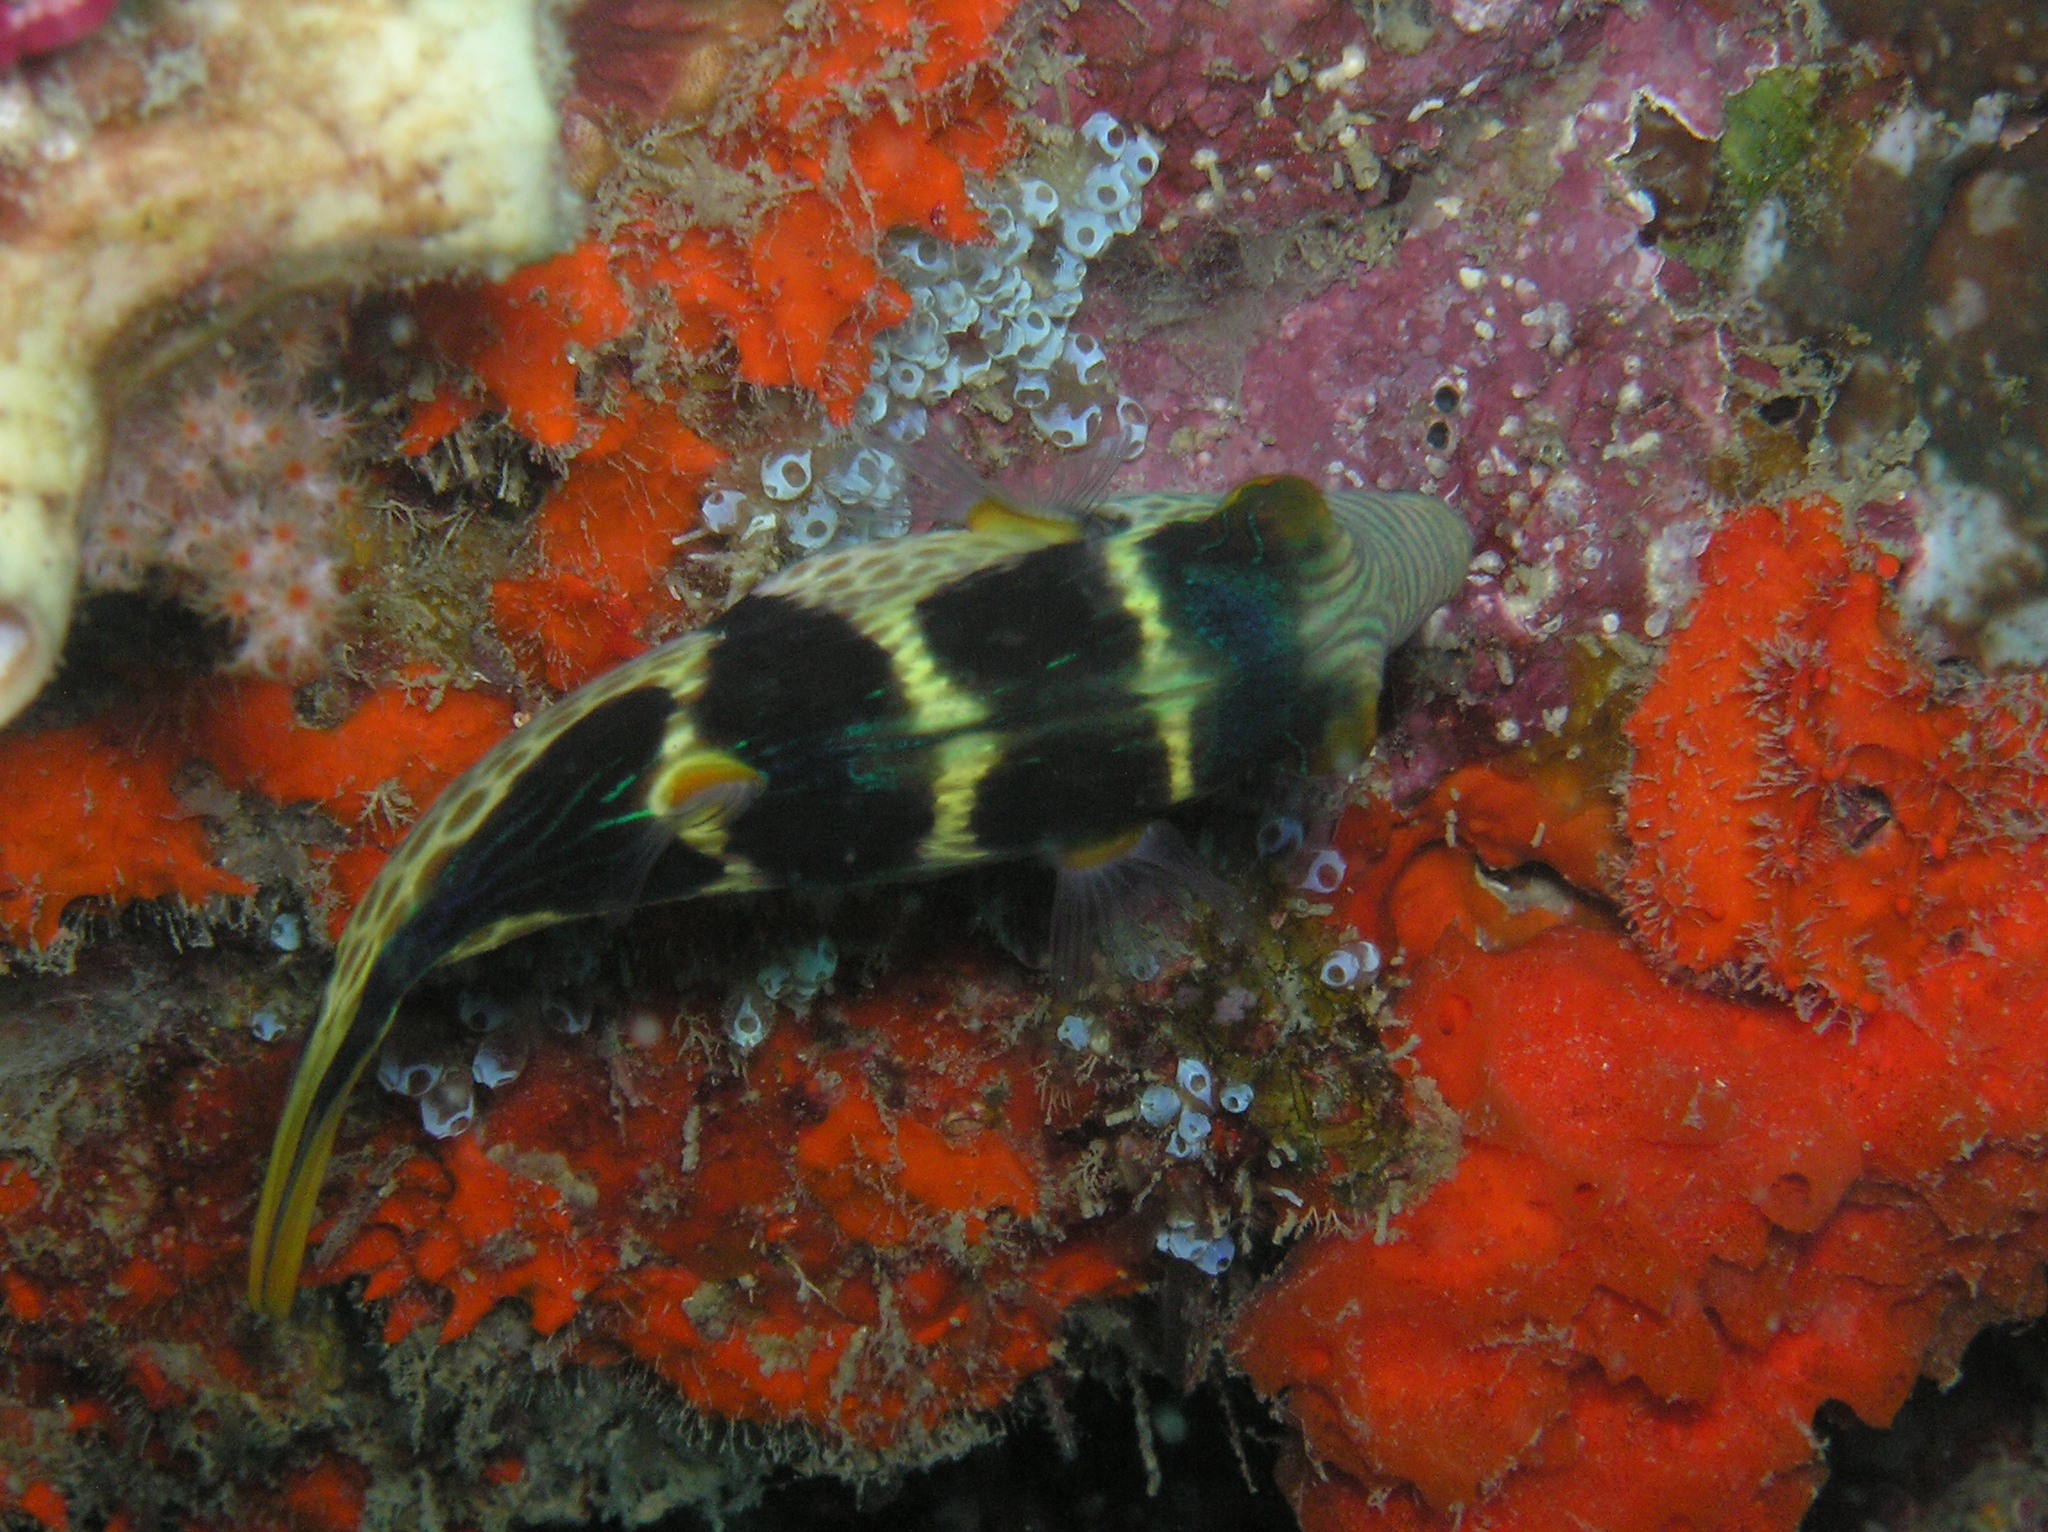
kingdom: Animalia
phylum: Chordata
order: Tetraodontiformes
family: Tetraodontidae
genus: Canthigaster
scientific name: Canthigaster valentini
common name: Banded toby
